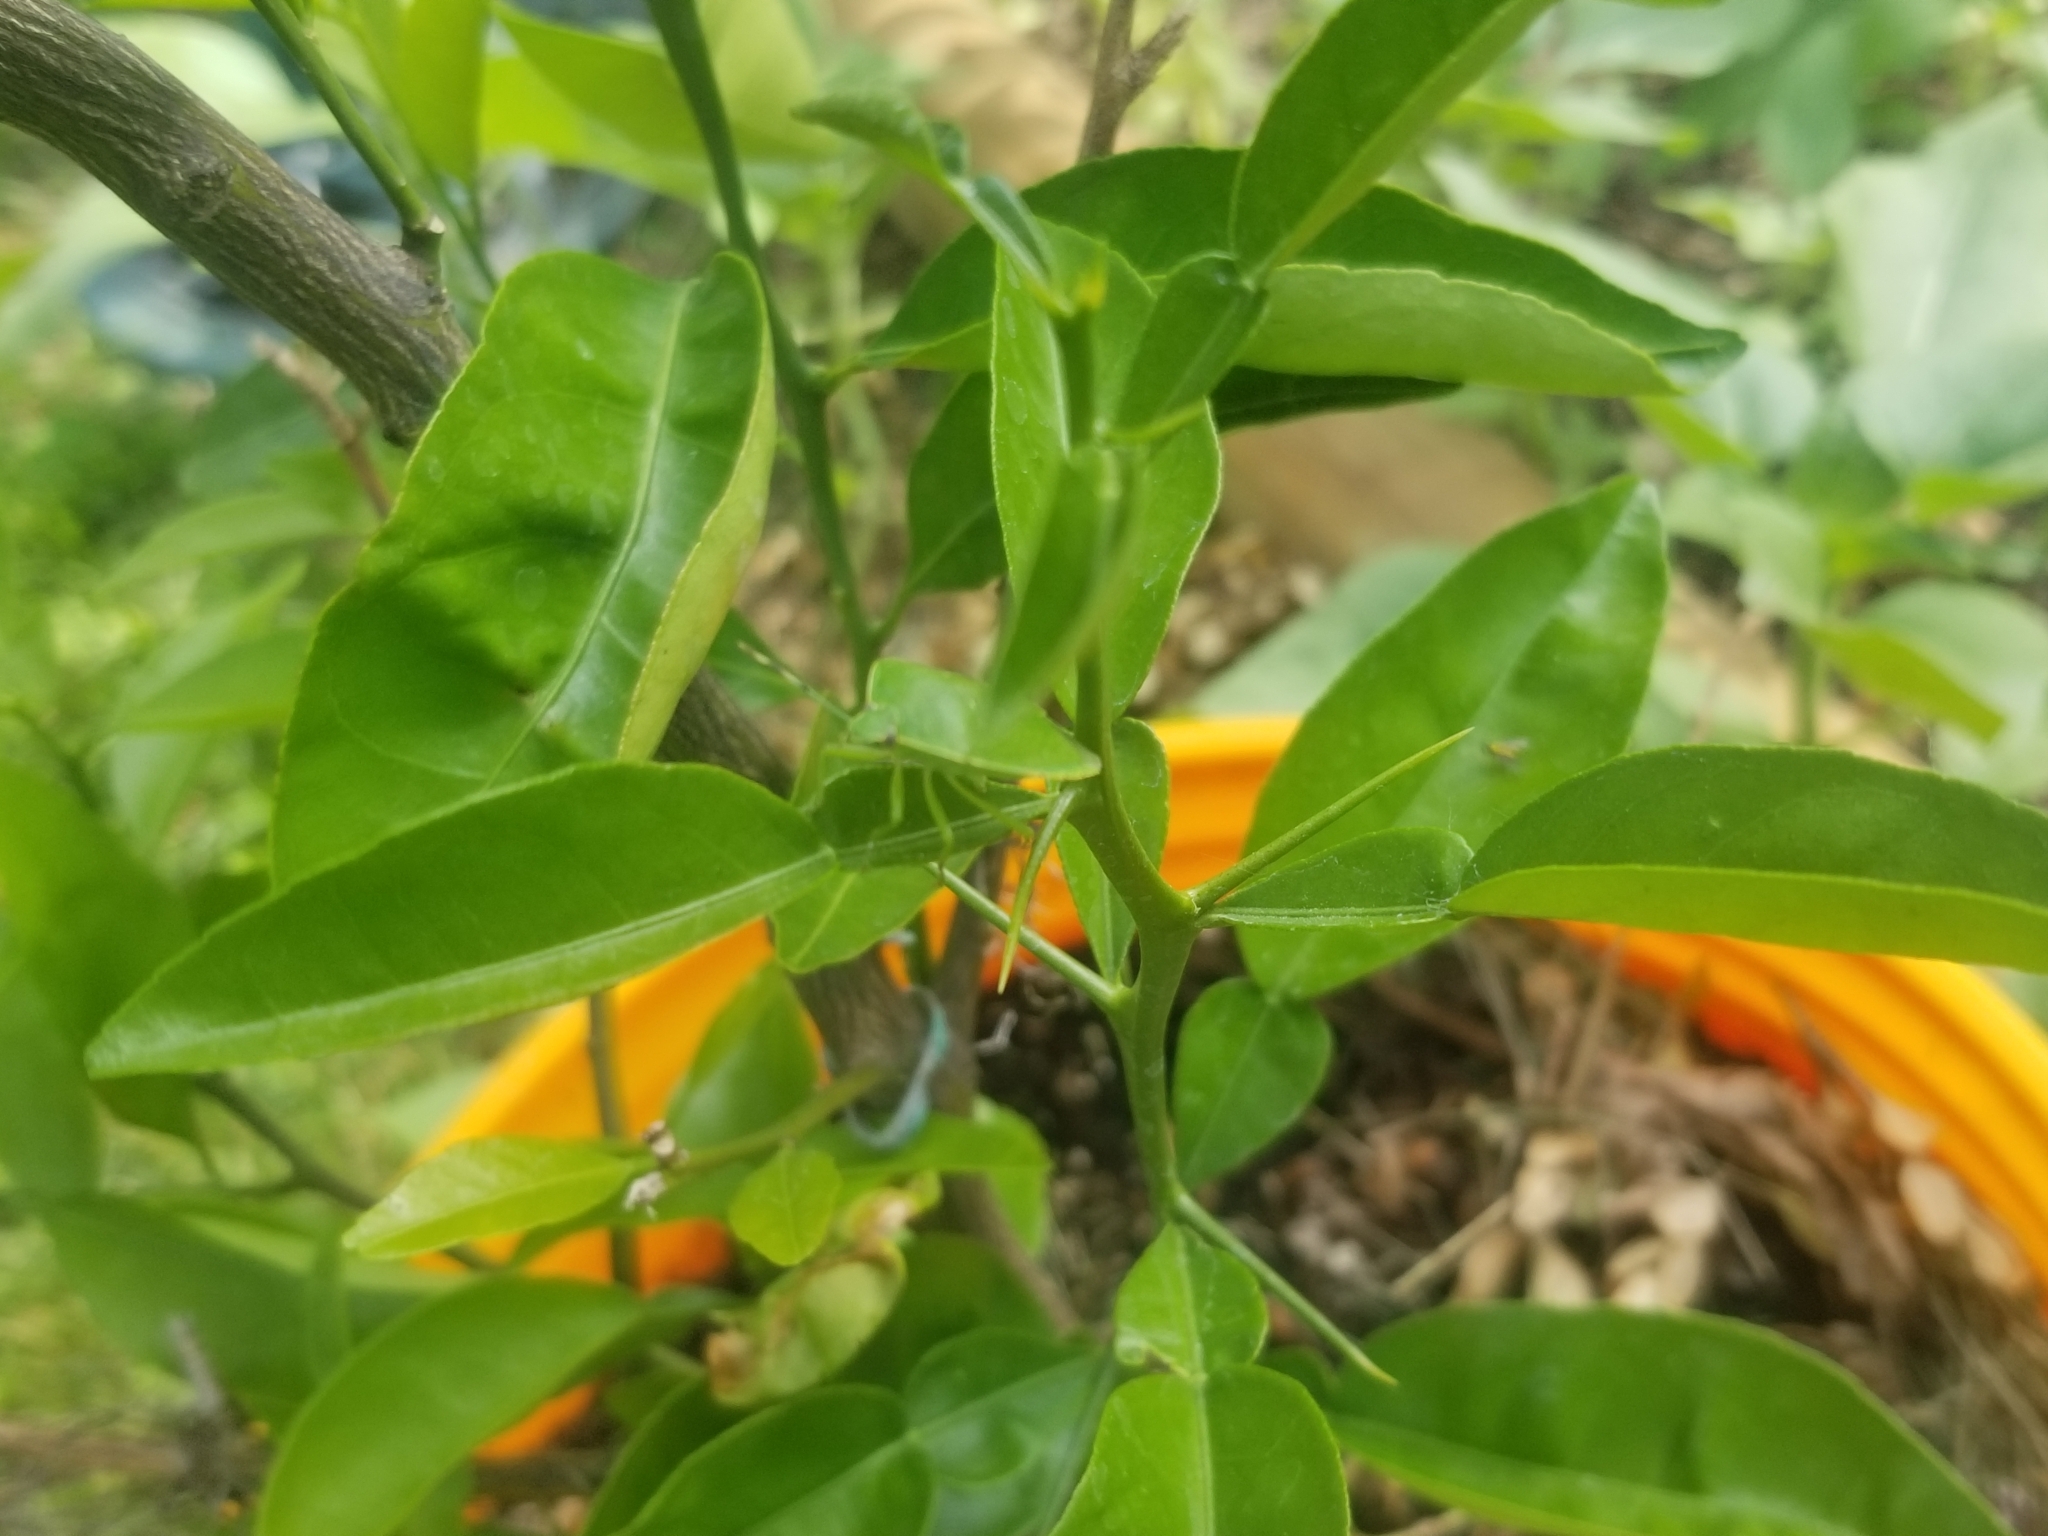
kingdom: Animalia
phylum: Arthropoda
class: Insecta
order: Hemiptera
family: Pentatomidae
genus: Chinavia
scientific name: Chinavia hilaris
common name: Green stink bug
